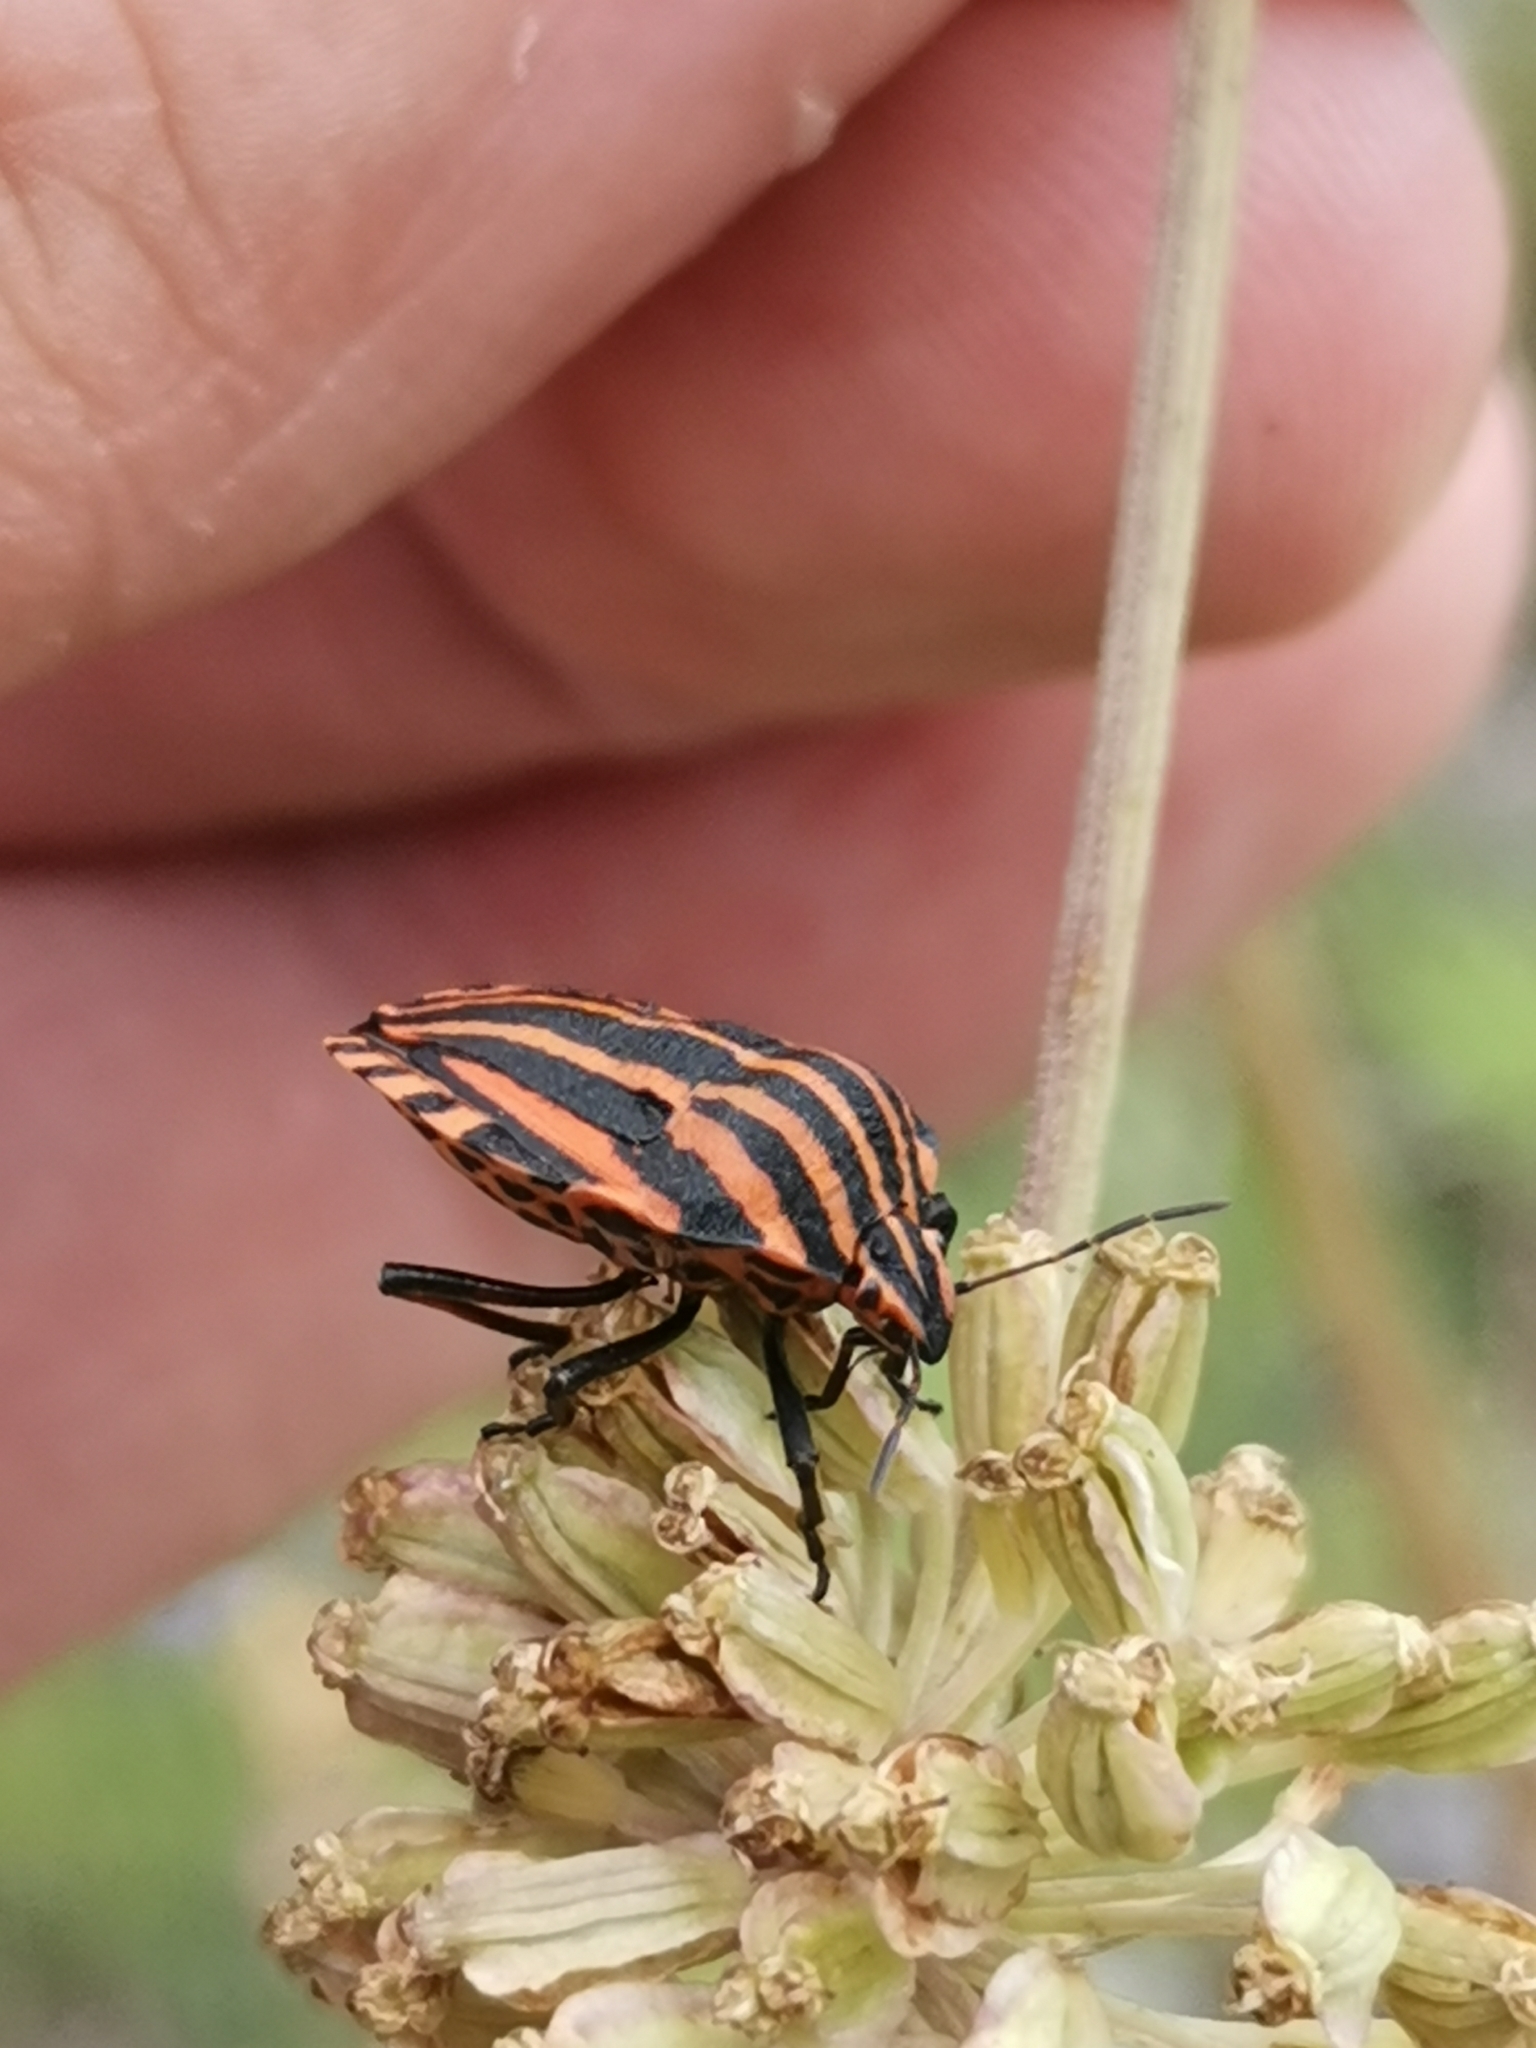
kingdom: Animalia
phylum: Arthropoda
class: Insecta
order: Hemiptera
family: Pentatomidae
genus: Graphosoma
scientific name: Graphosoma italicum
